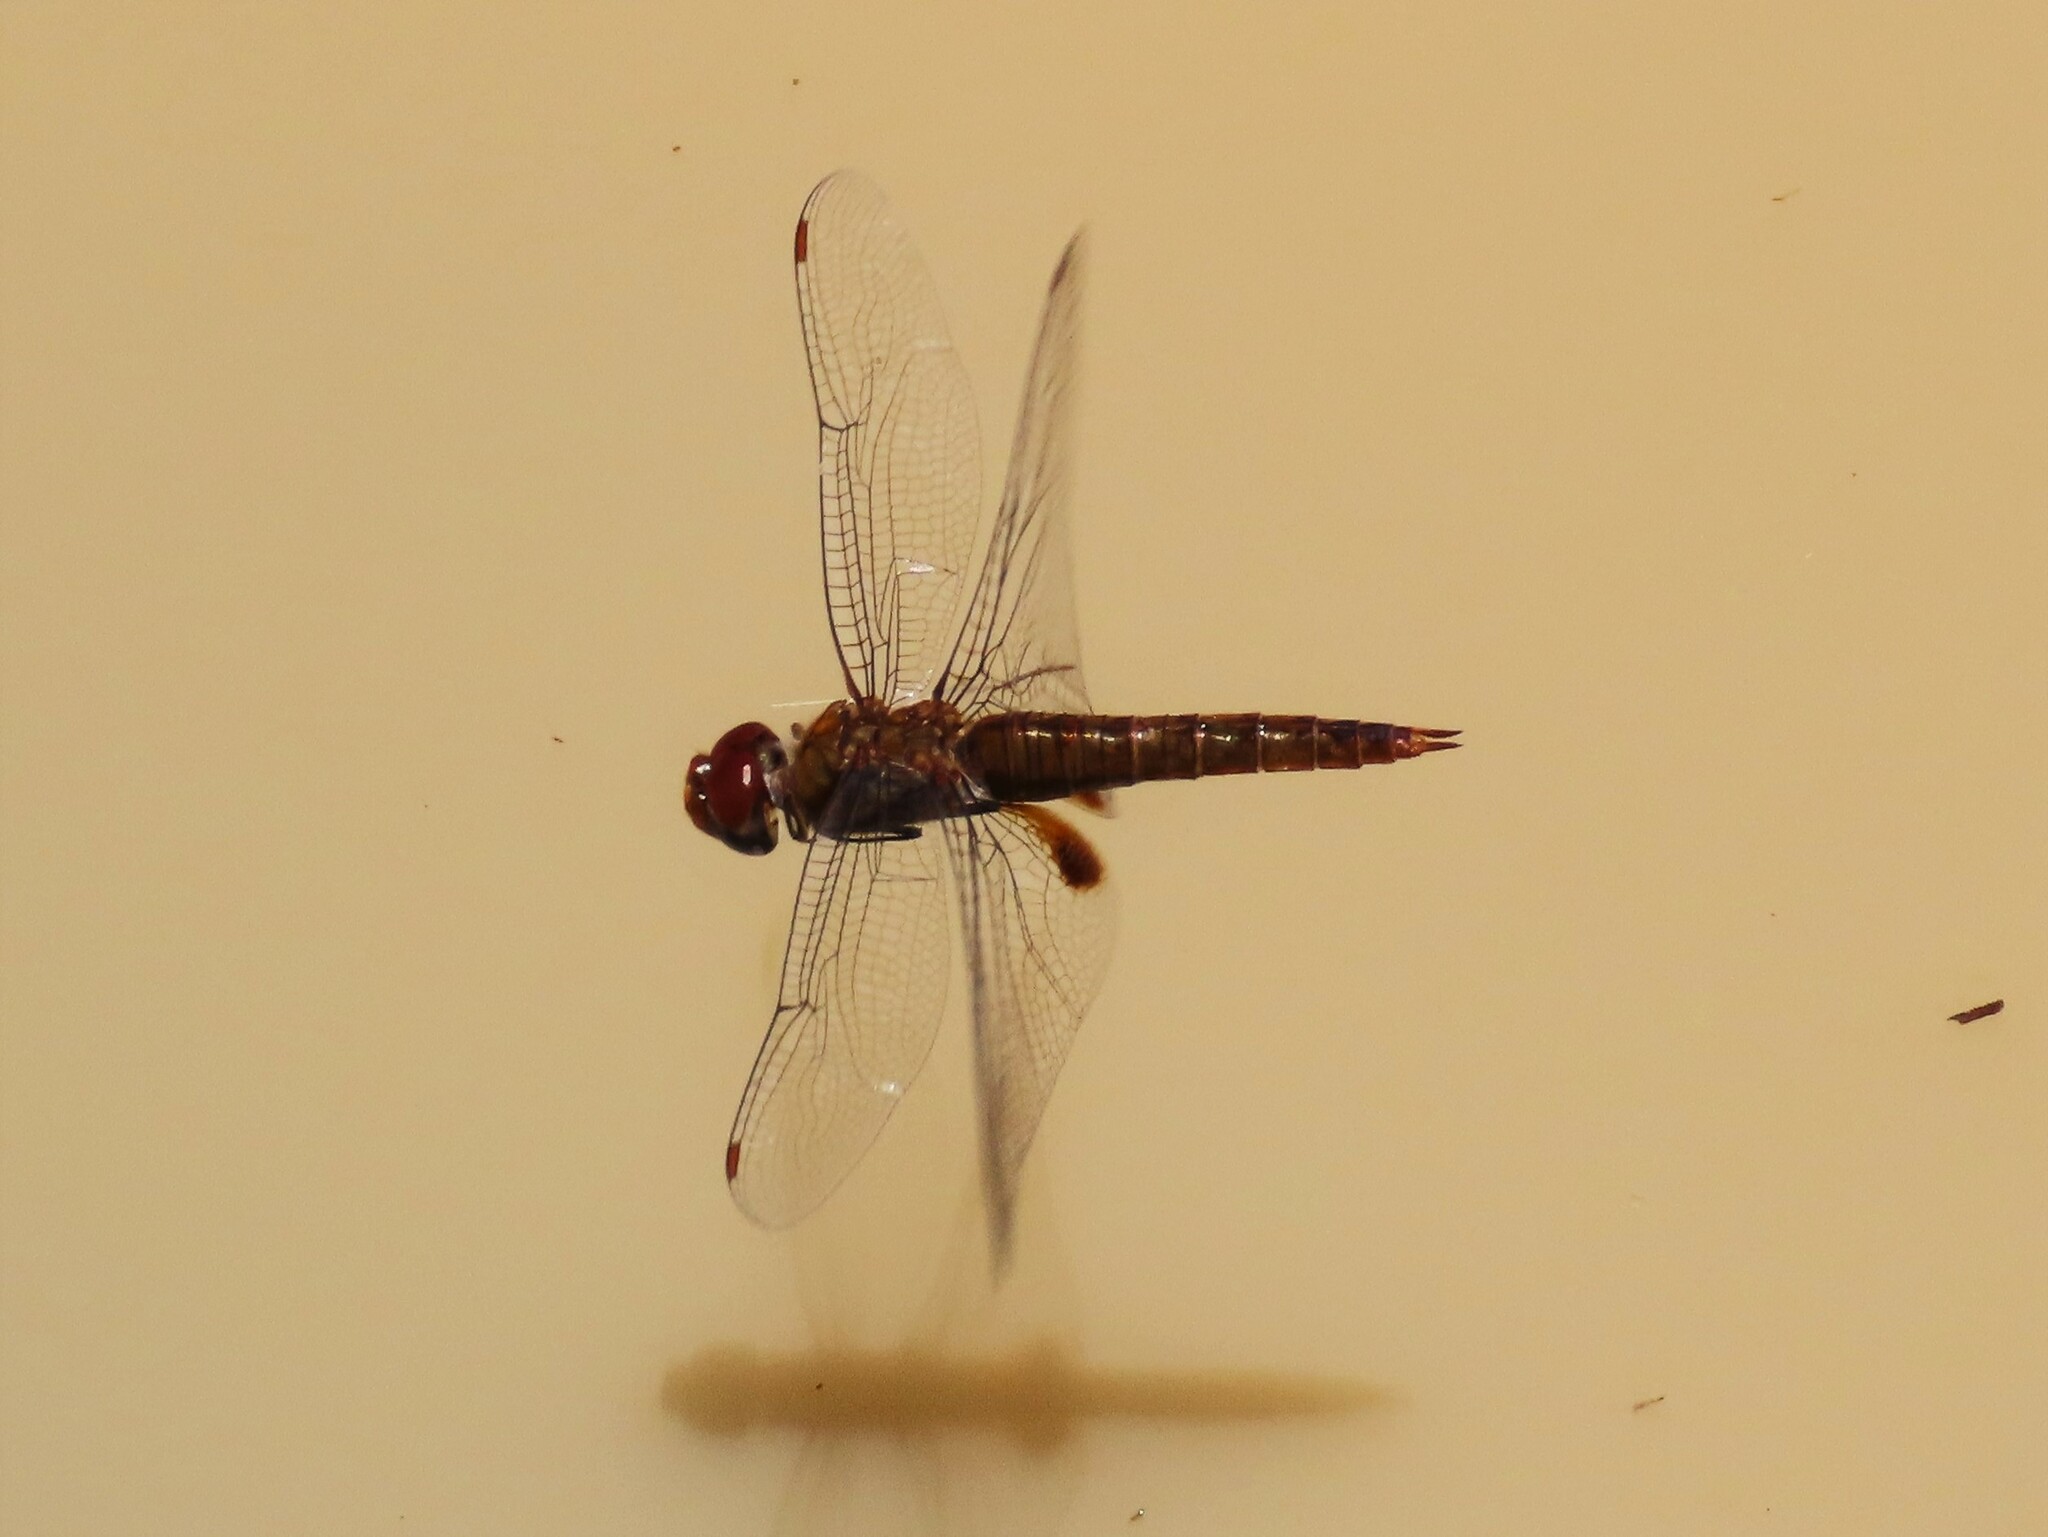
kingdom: Animalia
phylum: Arthropoda
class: Insecta
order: Odonata
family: Libellulidae
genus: Pantala
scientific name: Pantala hymenaea
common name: Spot-winged glider
